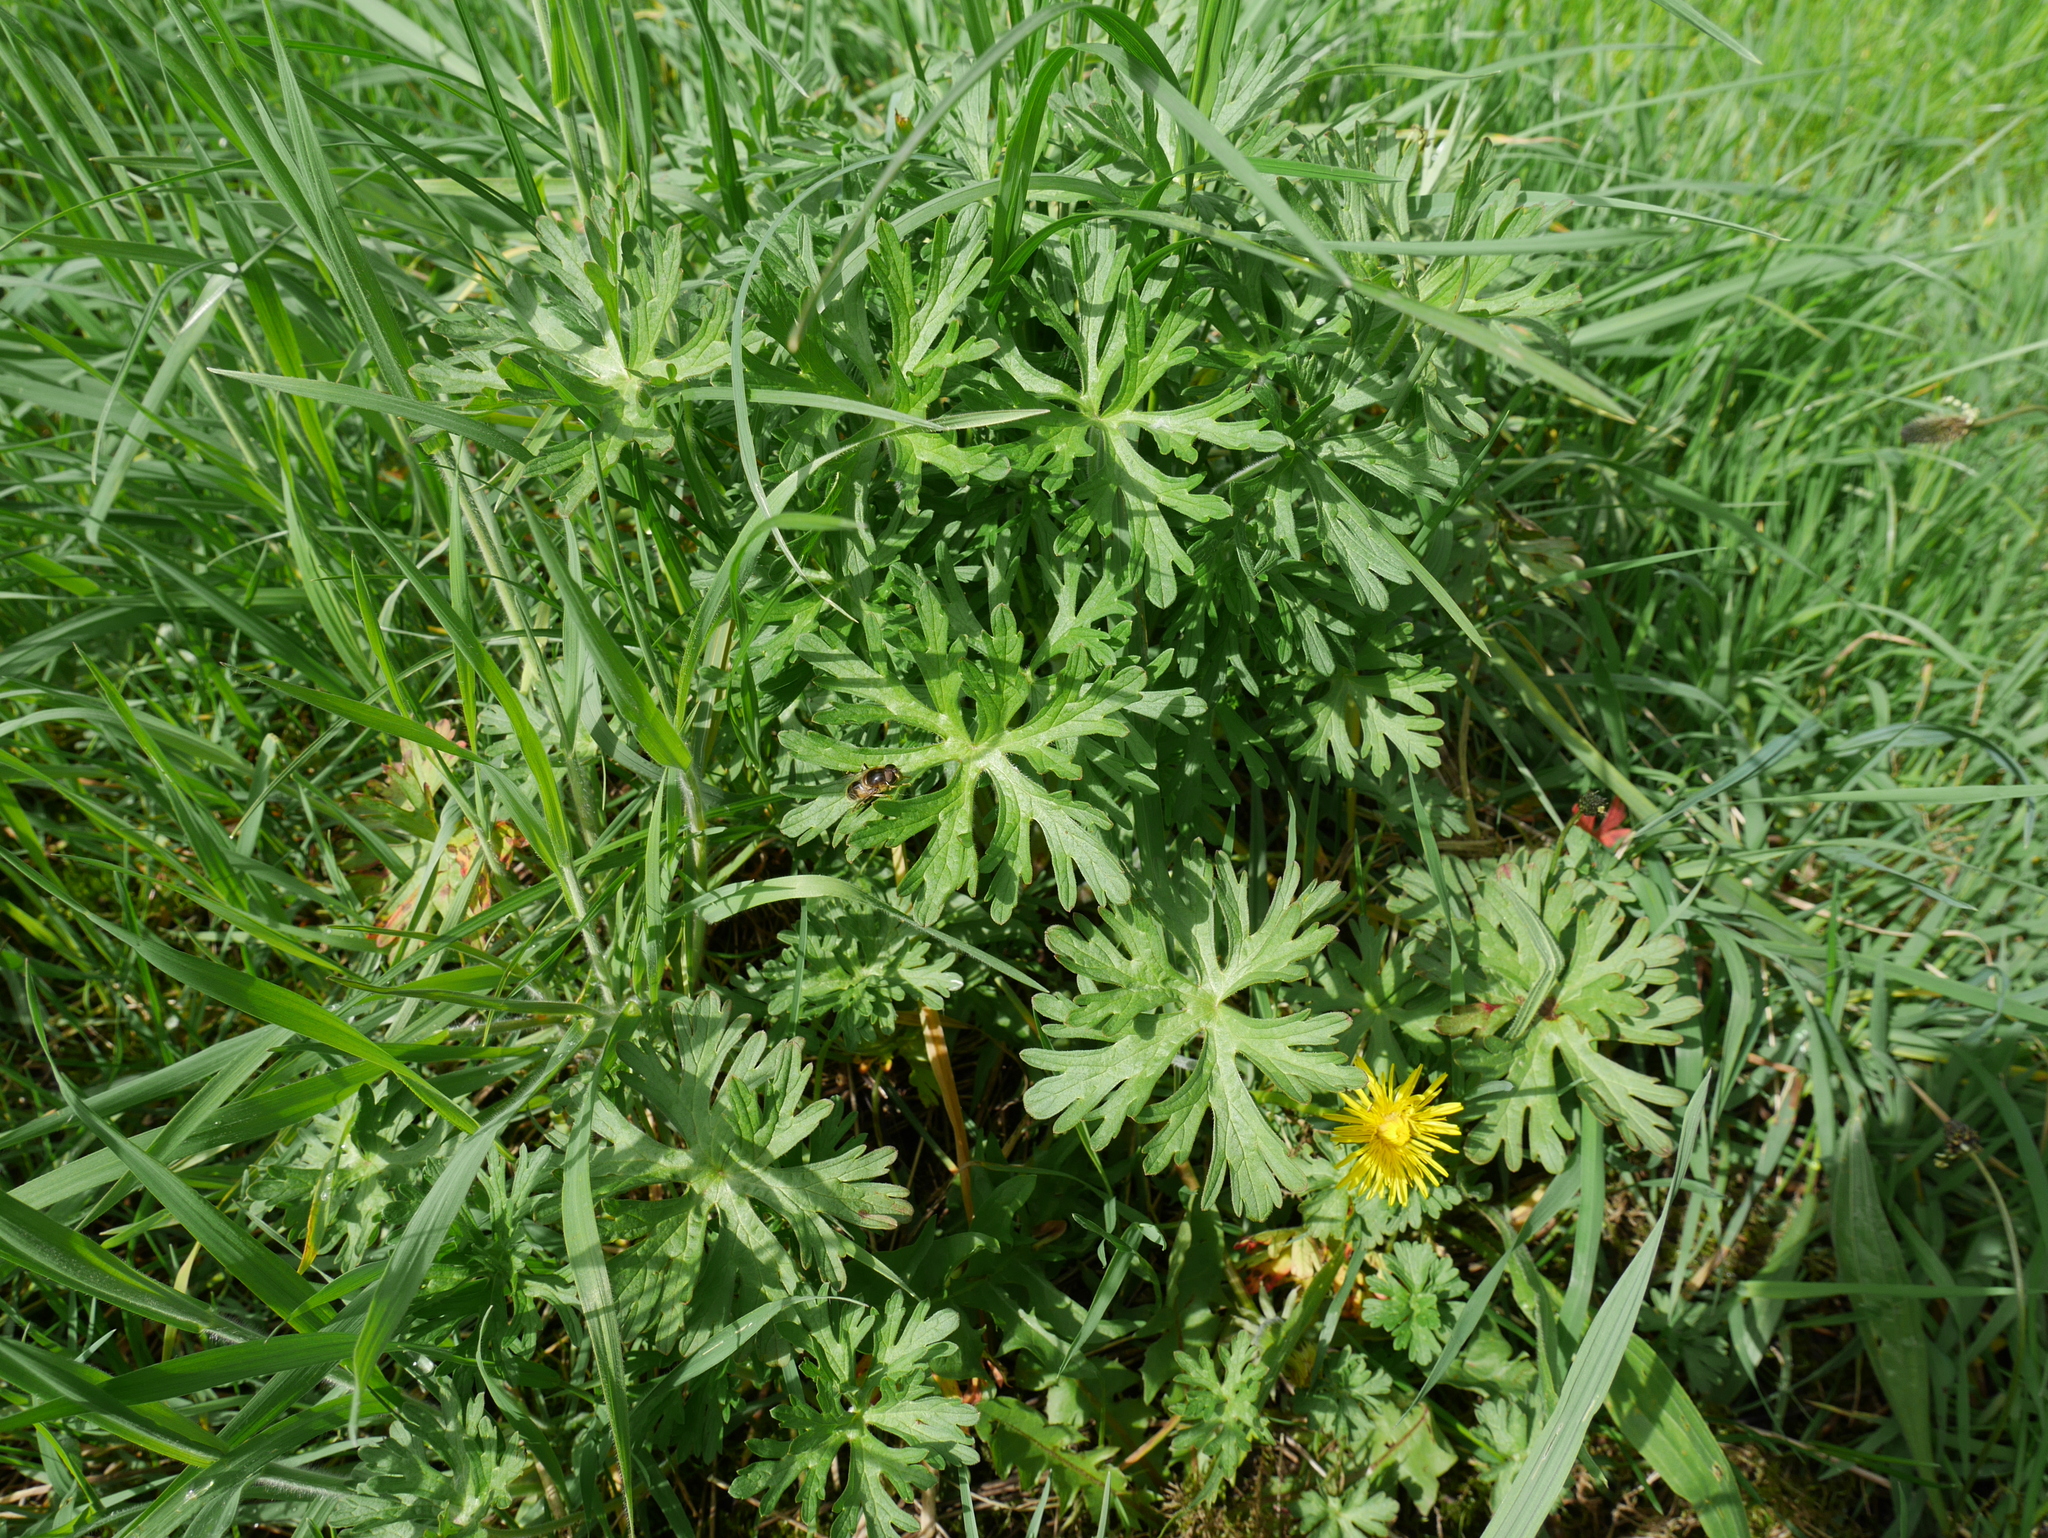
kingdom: Plantae
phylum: Tracheophyta
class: Magnoliopsida
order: Geraniales
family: Geraniaceae
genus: Geranium
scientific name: Geranium dissectum
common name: Cut-leaved crane's-bill
